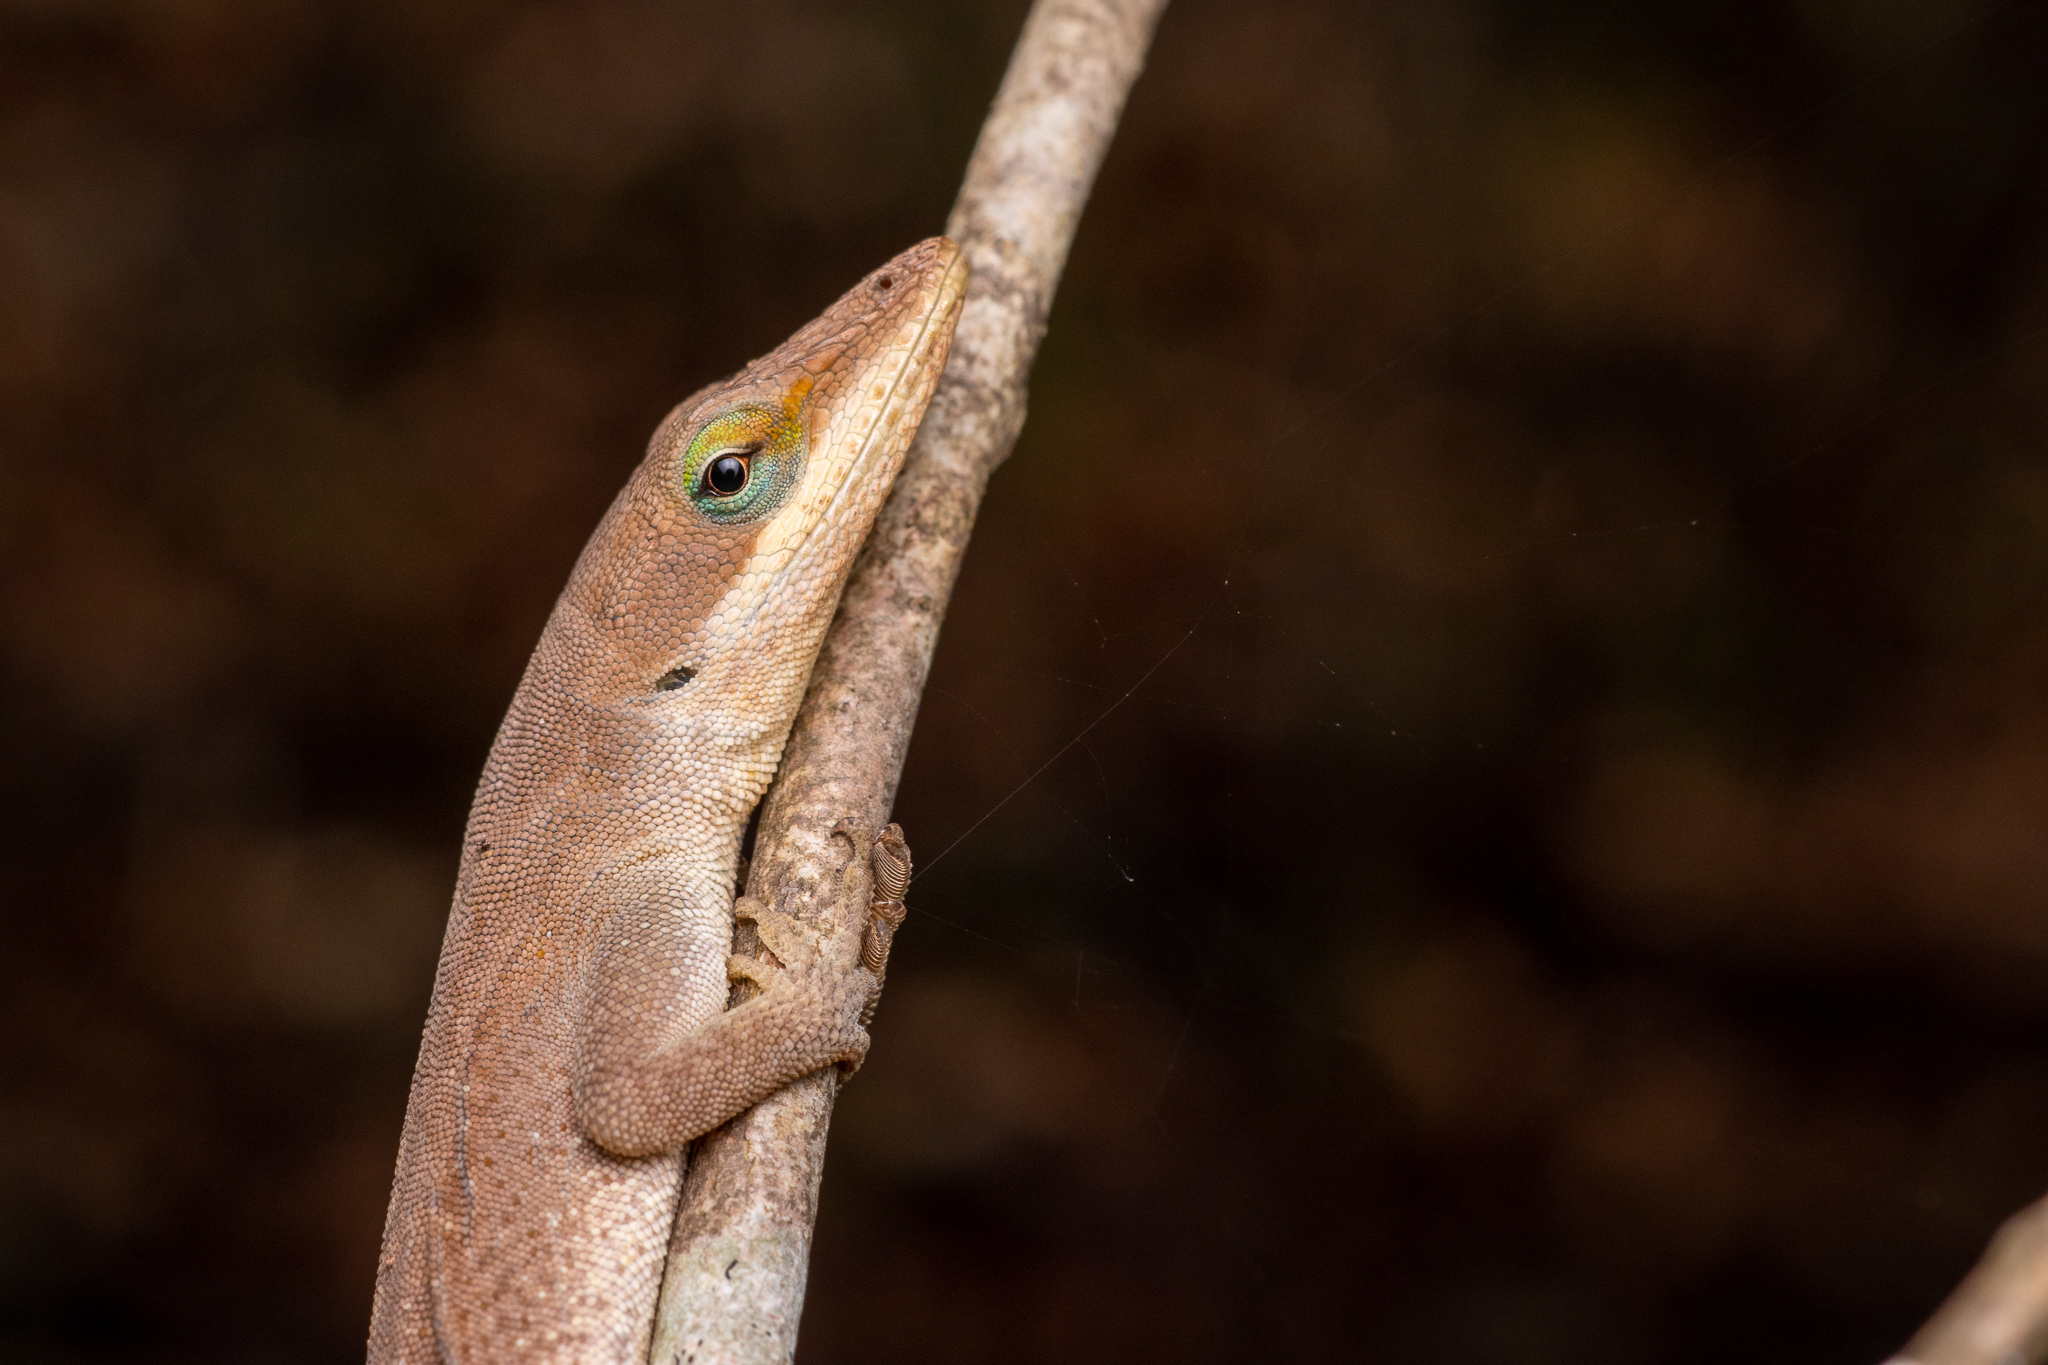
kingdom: Animalia
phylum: Chordata
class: Squamata
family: Dactyloidae
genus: Anolis
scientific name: Anolis carolinensis
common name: Green anole
